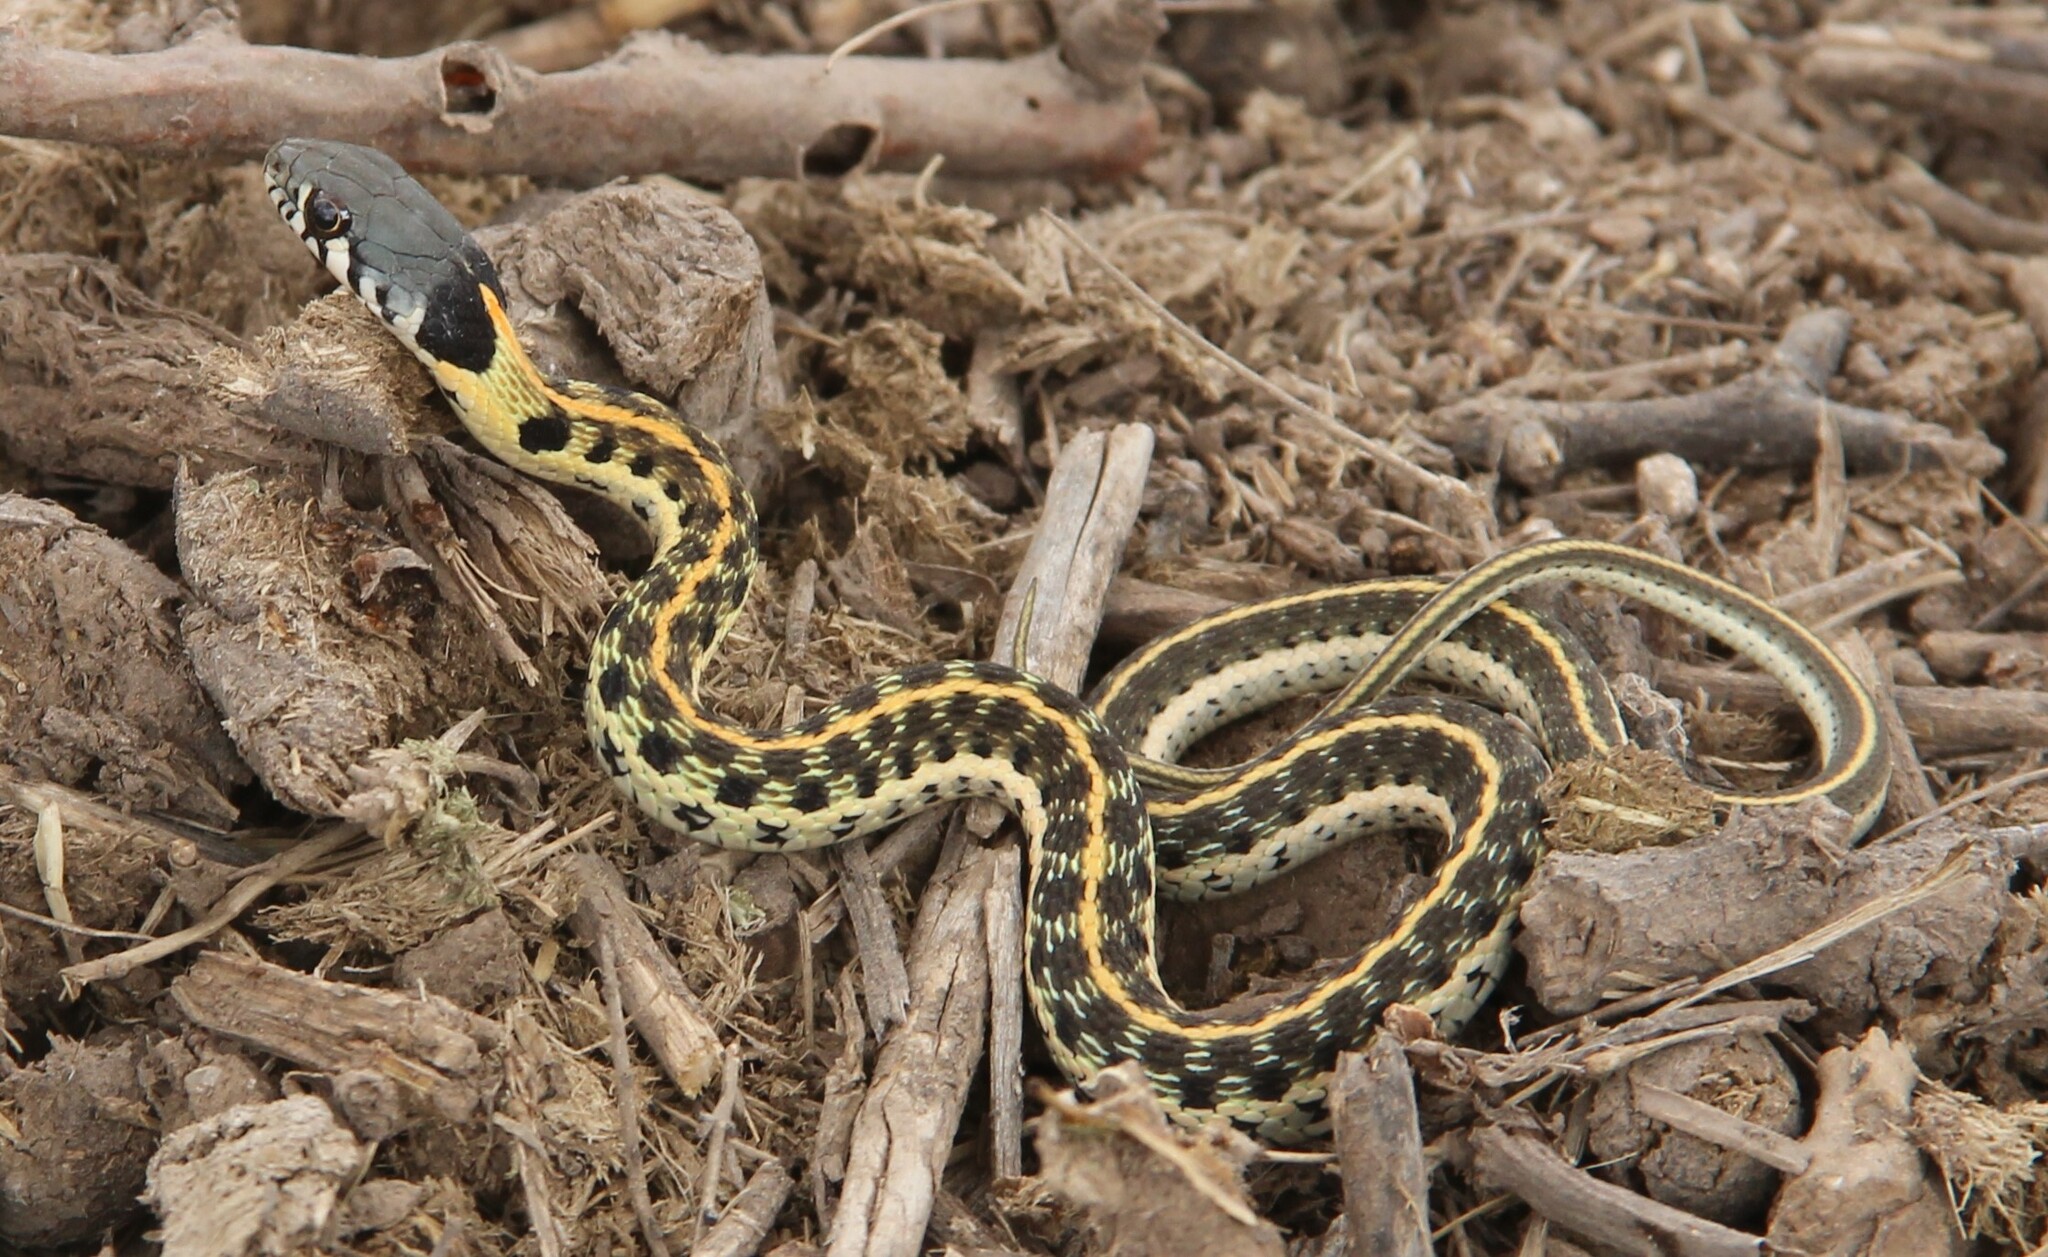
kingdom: Animalia
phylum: Chordata
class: Squamata
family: Colubridae
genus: Thamnophis
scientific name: Thamnophis cyrtopsis
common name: Black-necked gartersnake
